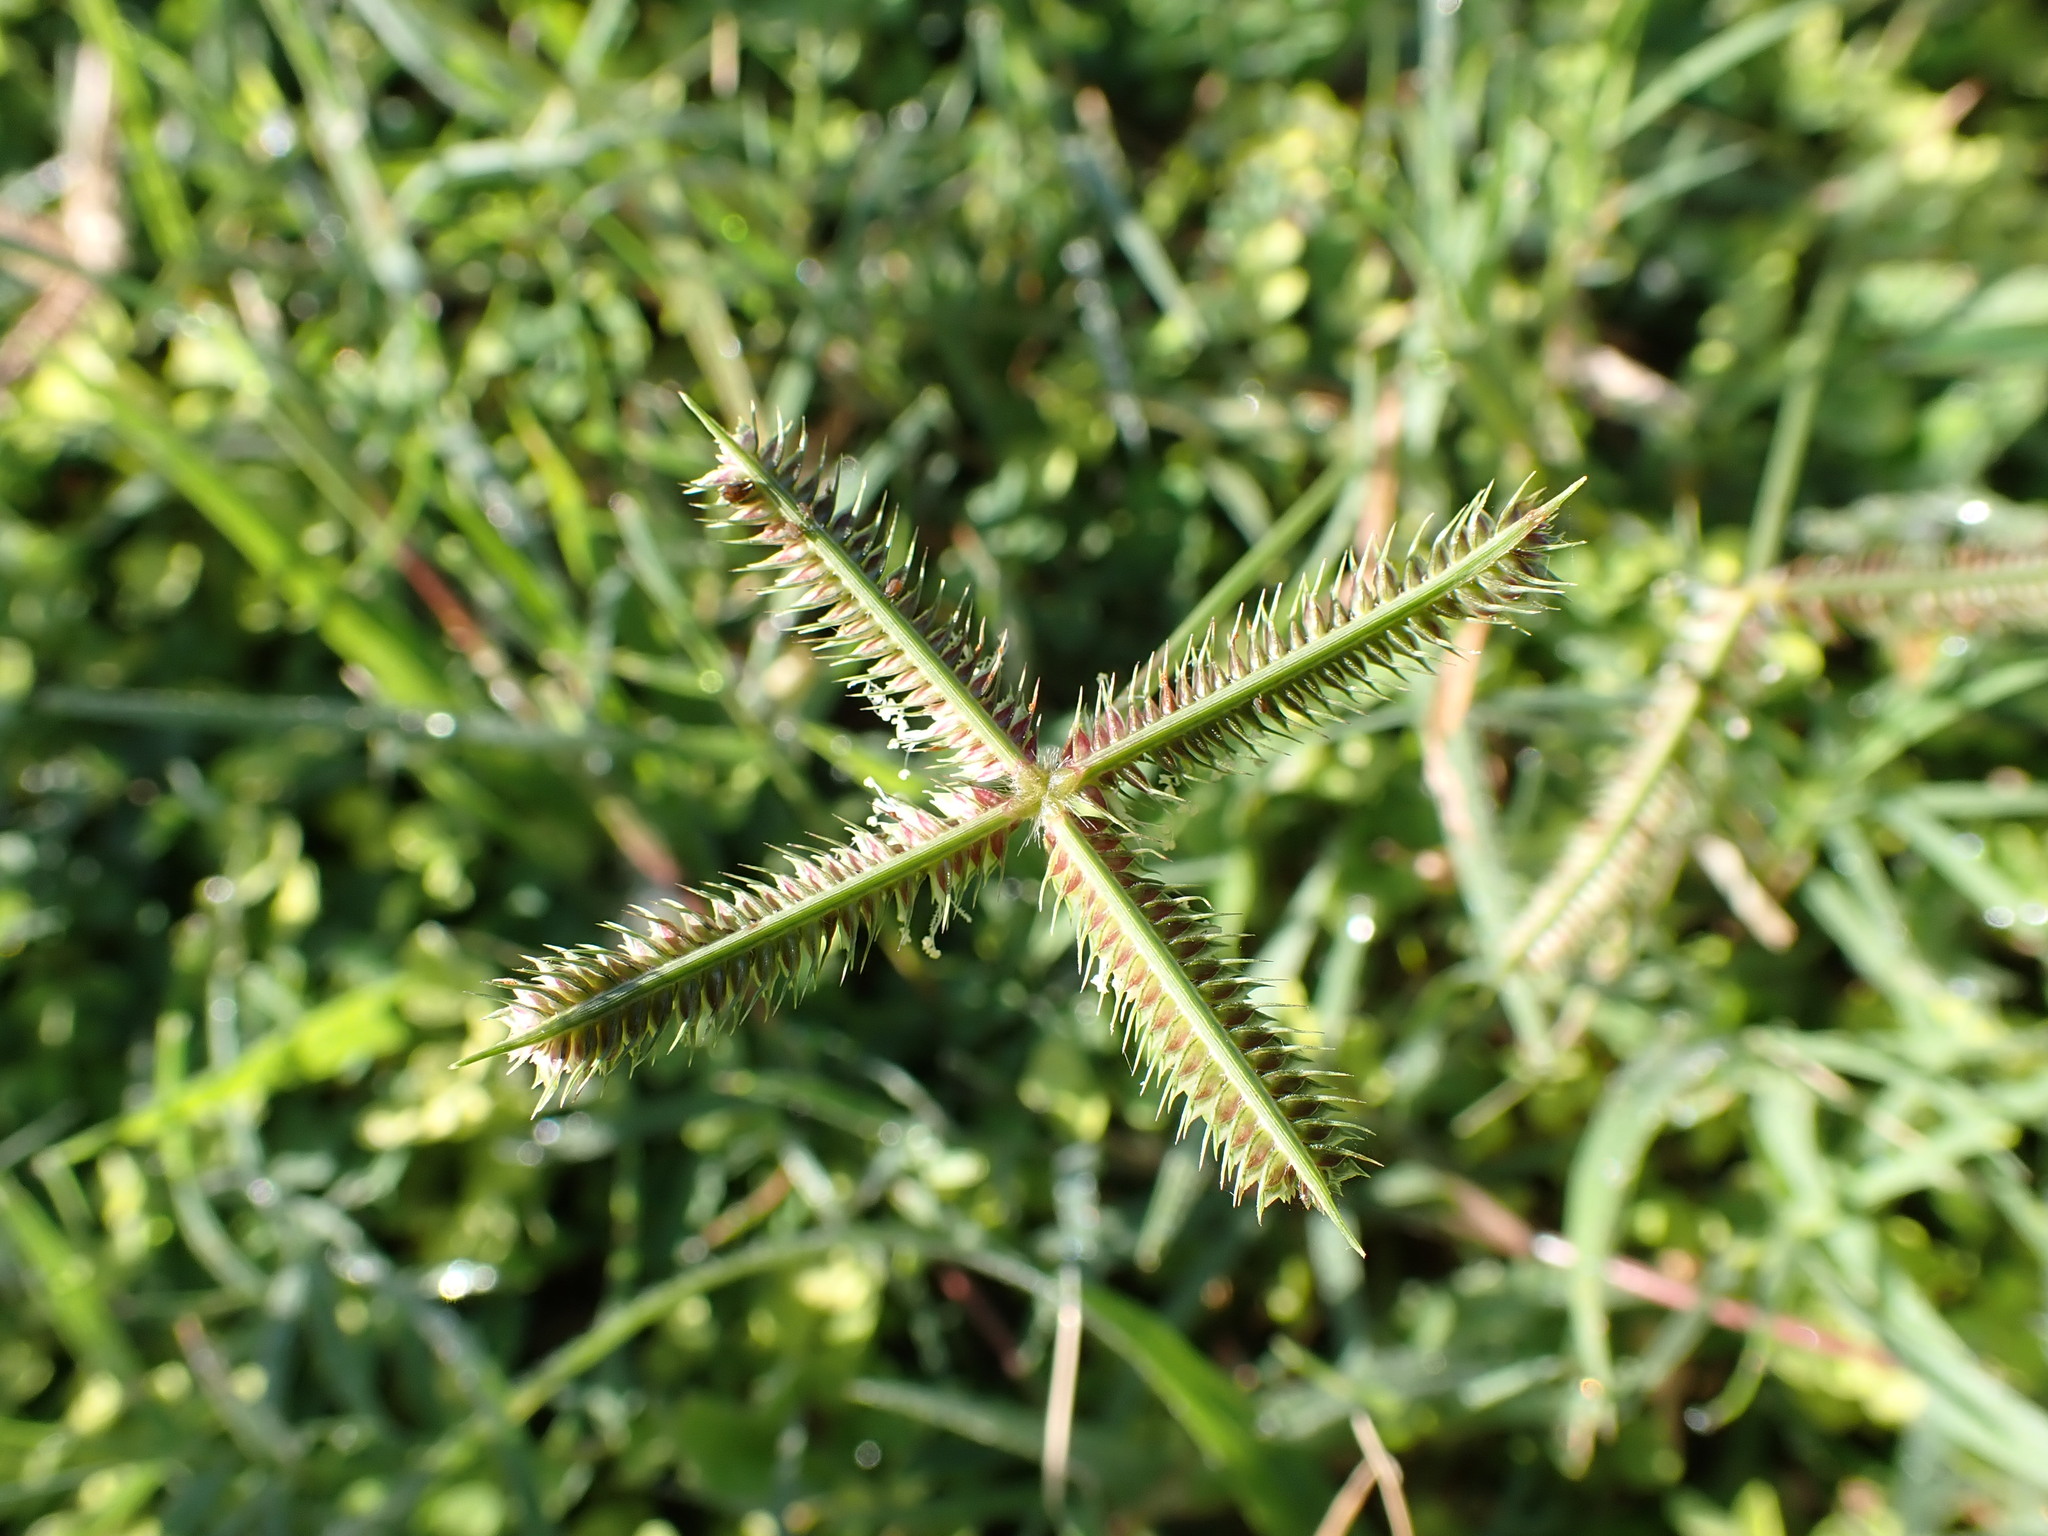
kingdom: Plantae
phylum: Tracheophyta
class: Liliopsida
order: Poales
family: Poaceae
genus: Dactyloctenium
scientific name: Dactyloctenium aegyptium
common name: Egyptian grass
